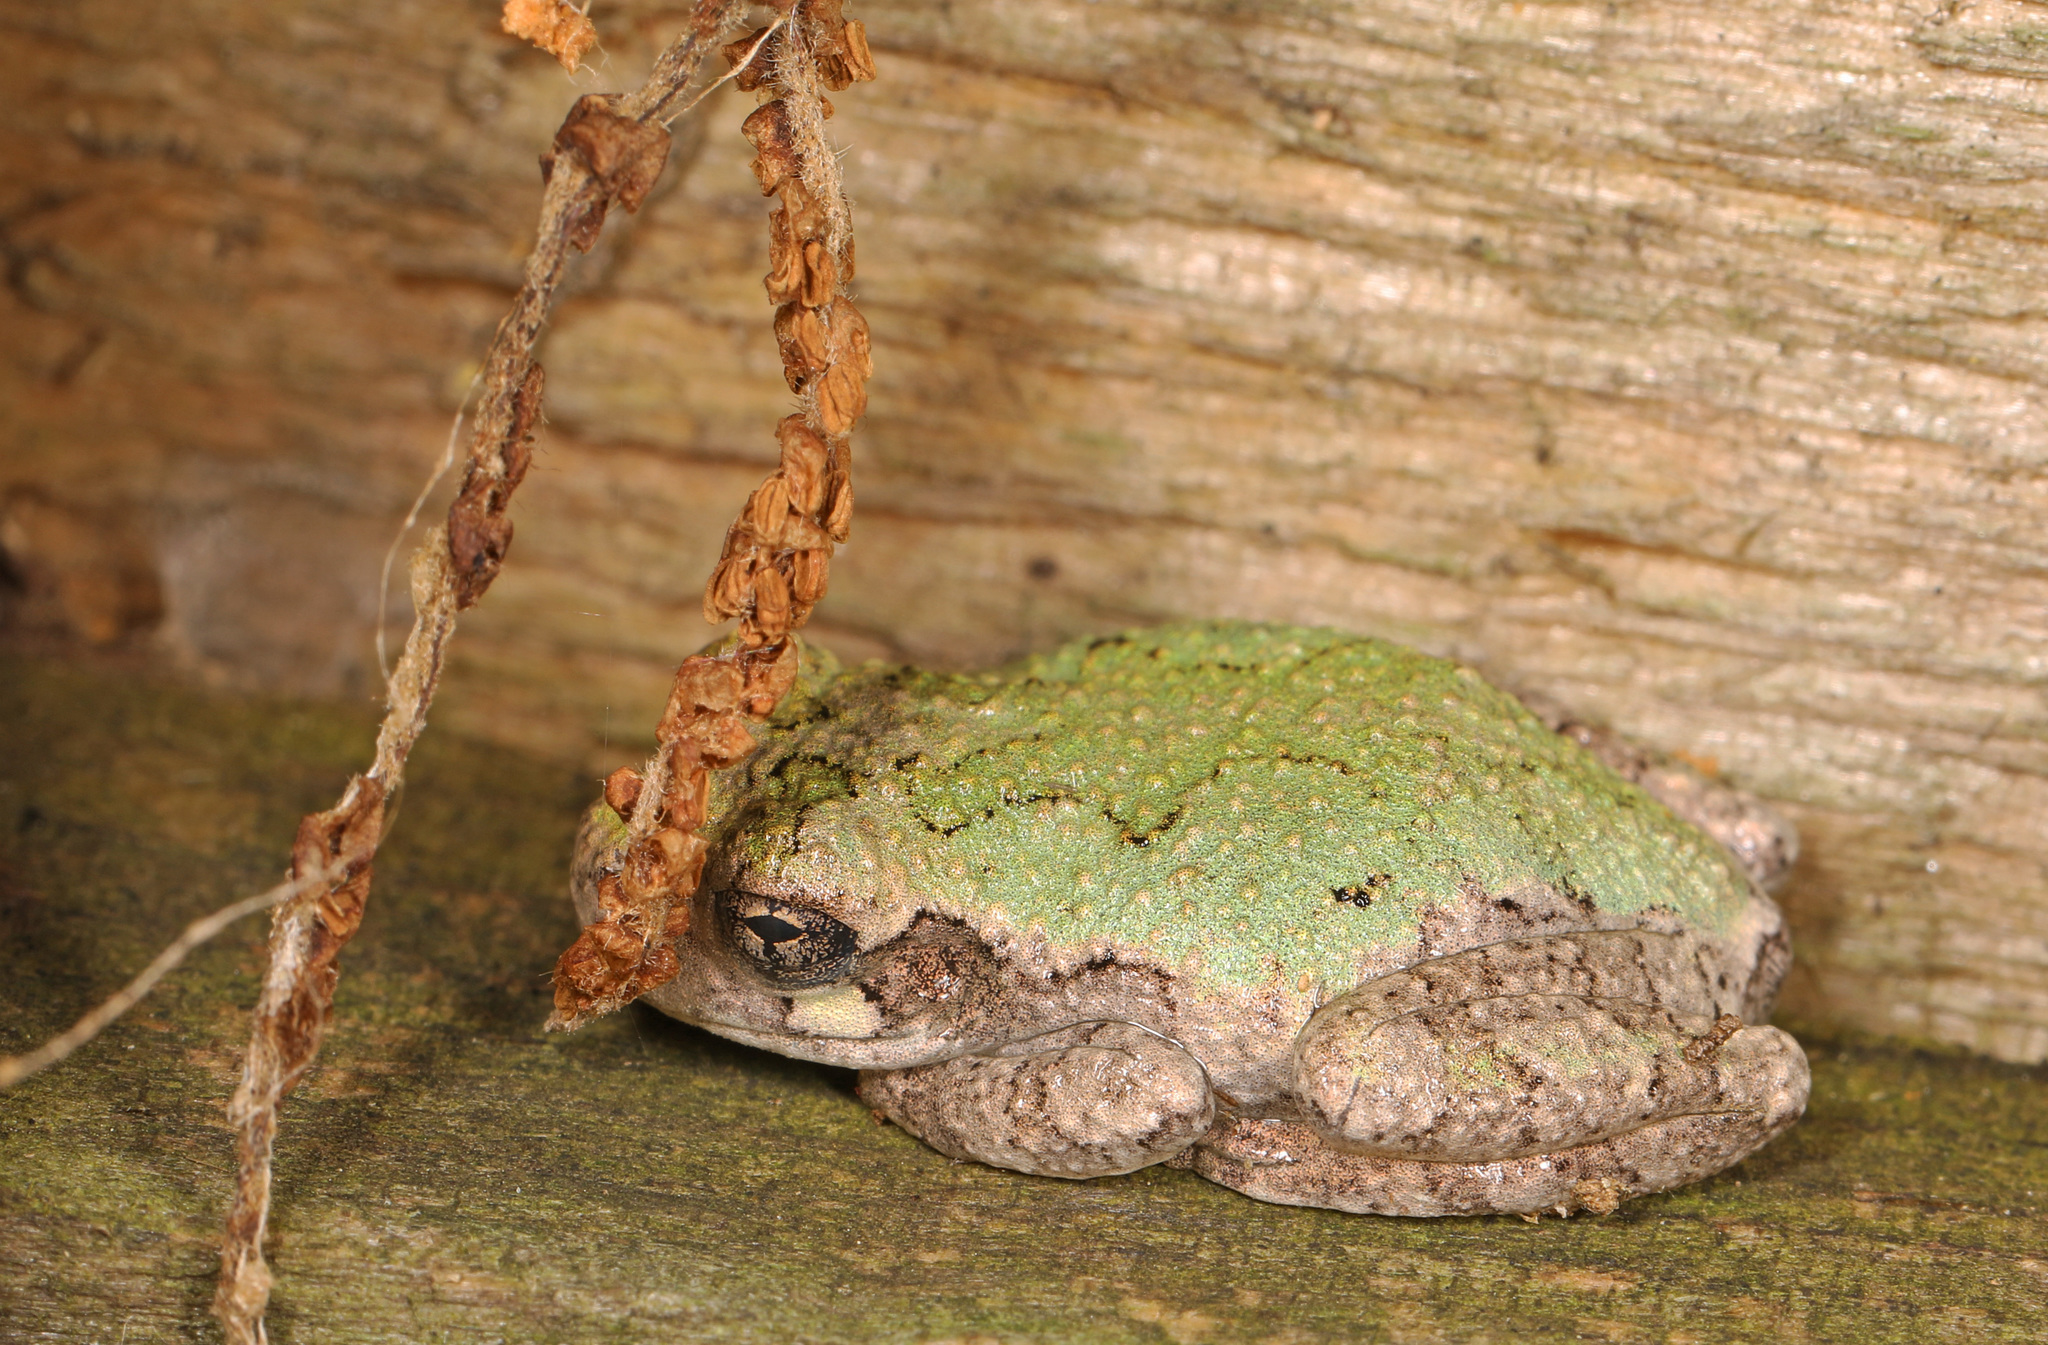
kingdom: Animalia
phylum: Chordata
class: Amphibia
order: Anura
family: Hylidae
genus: Hyla
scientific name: Hyla
